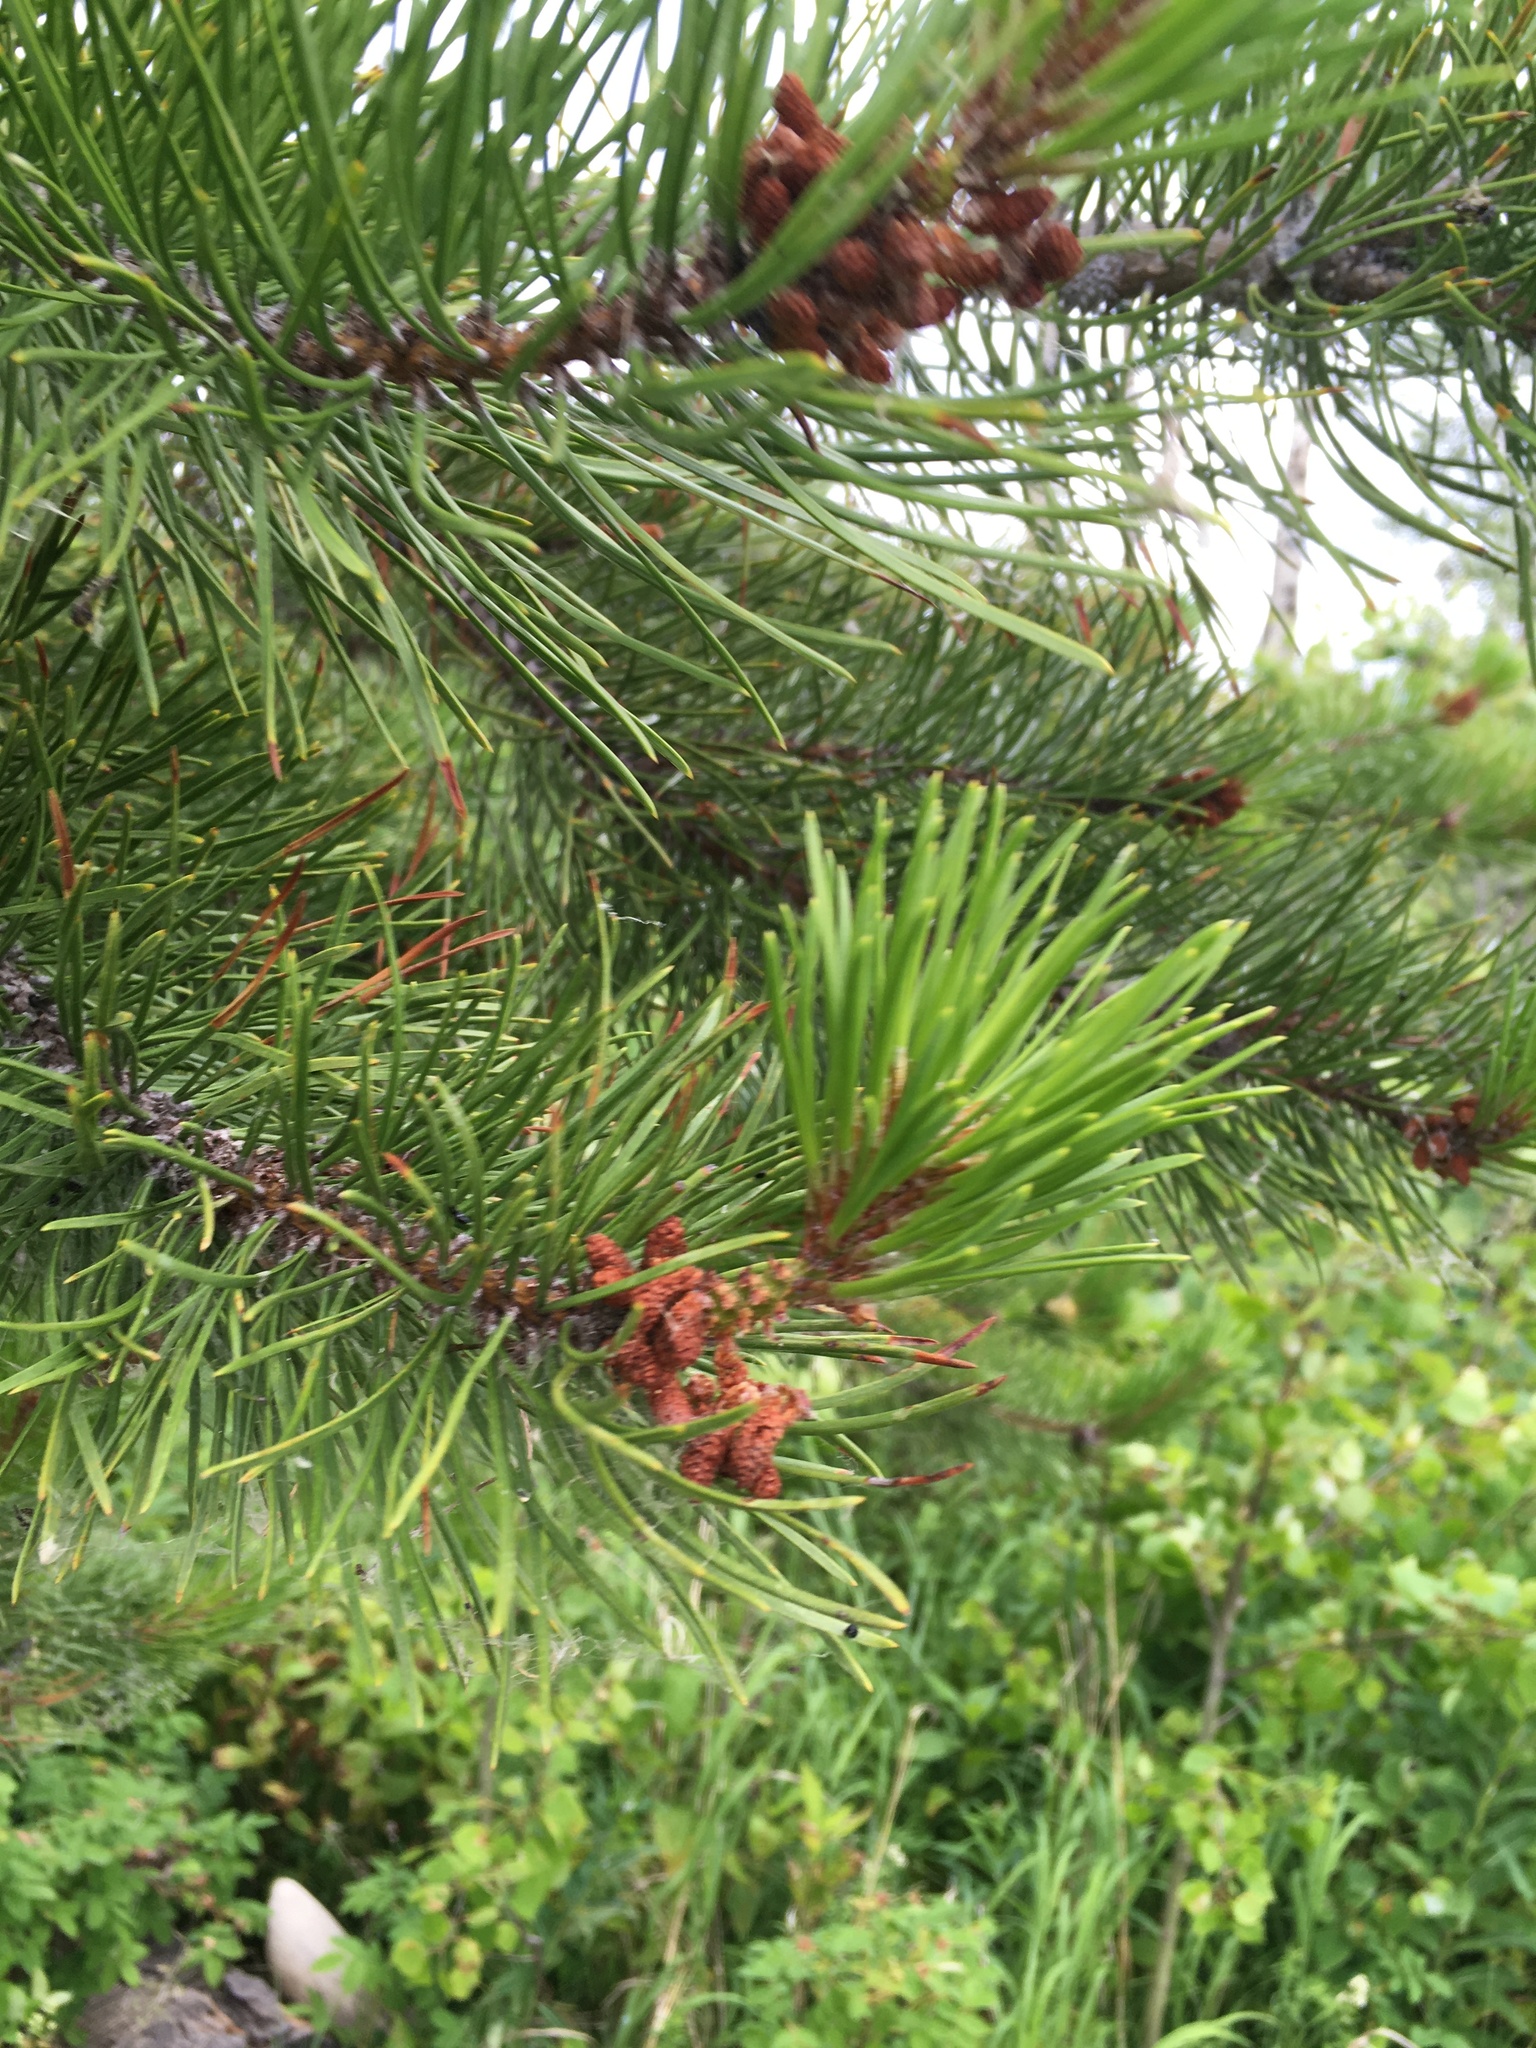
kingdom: Plantae
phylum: Tracheophyta
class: Pinopsida
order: Pinales
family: Pinaceae
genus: Pinus
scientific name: Pinus contorta
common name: Lodgepole pine
